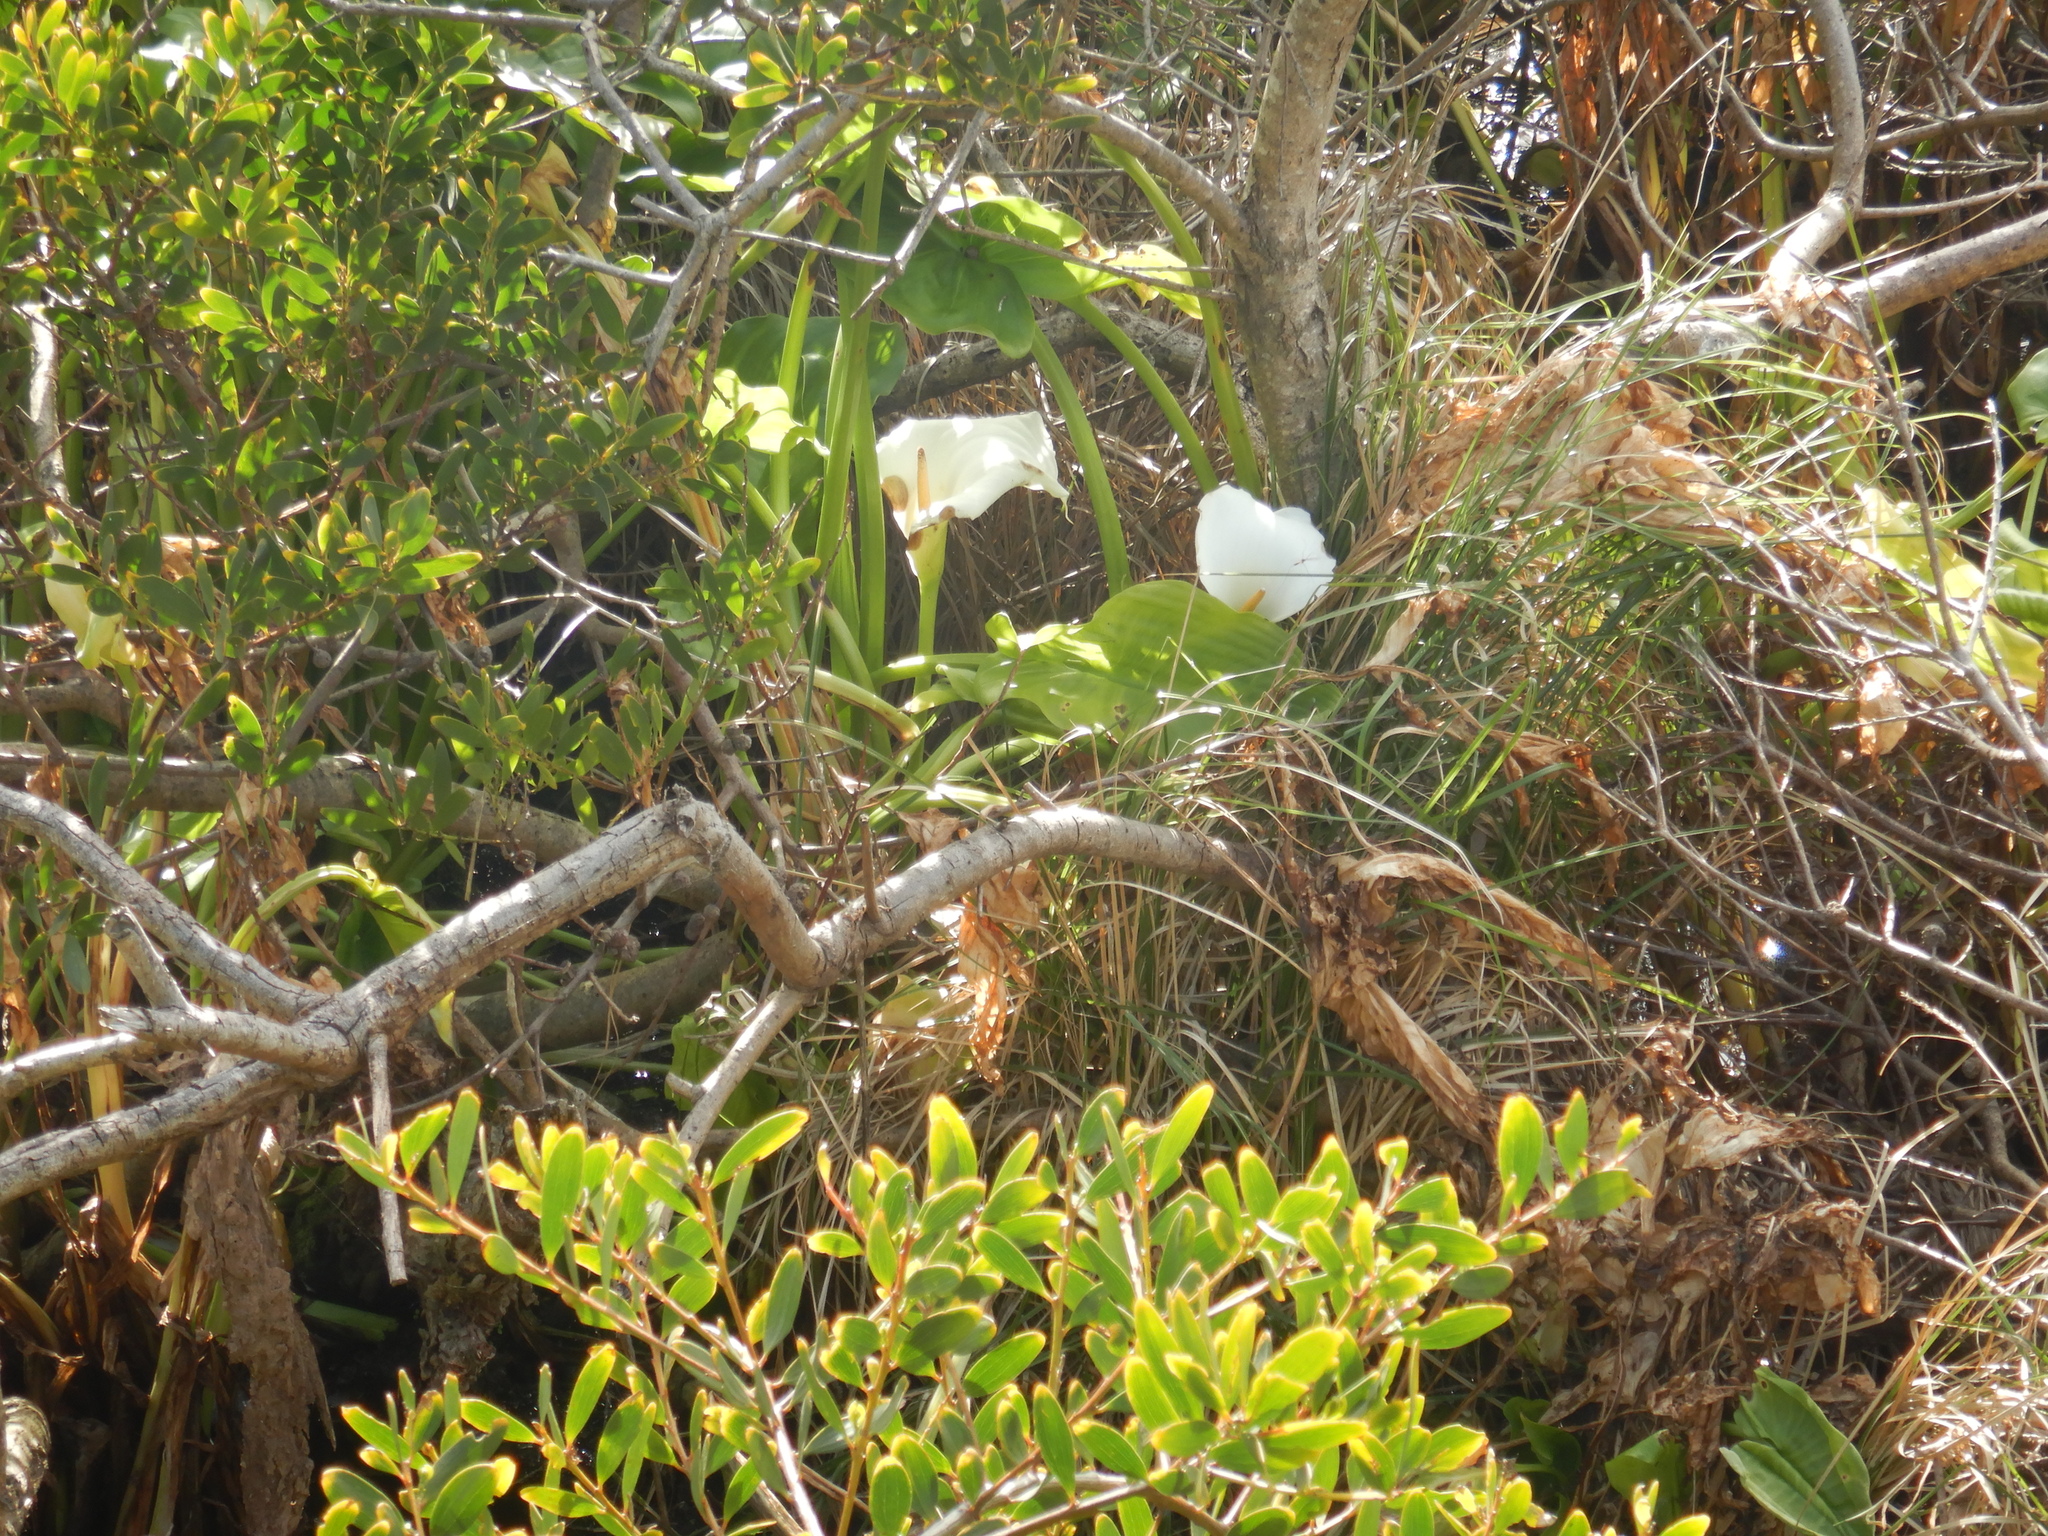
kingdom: Plantae
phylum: Tracheophyta
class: Liliopsida
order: Alismatales
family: Araceae
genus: Zantedeschia
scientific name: Zantedeschia aethiopica
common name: Altar-lily
